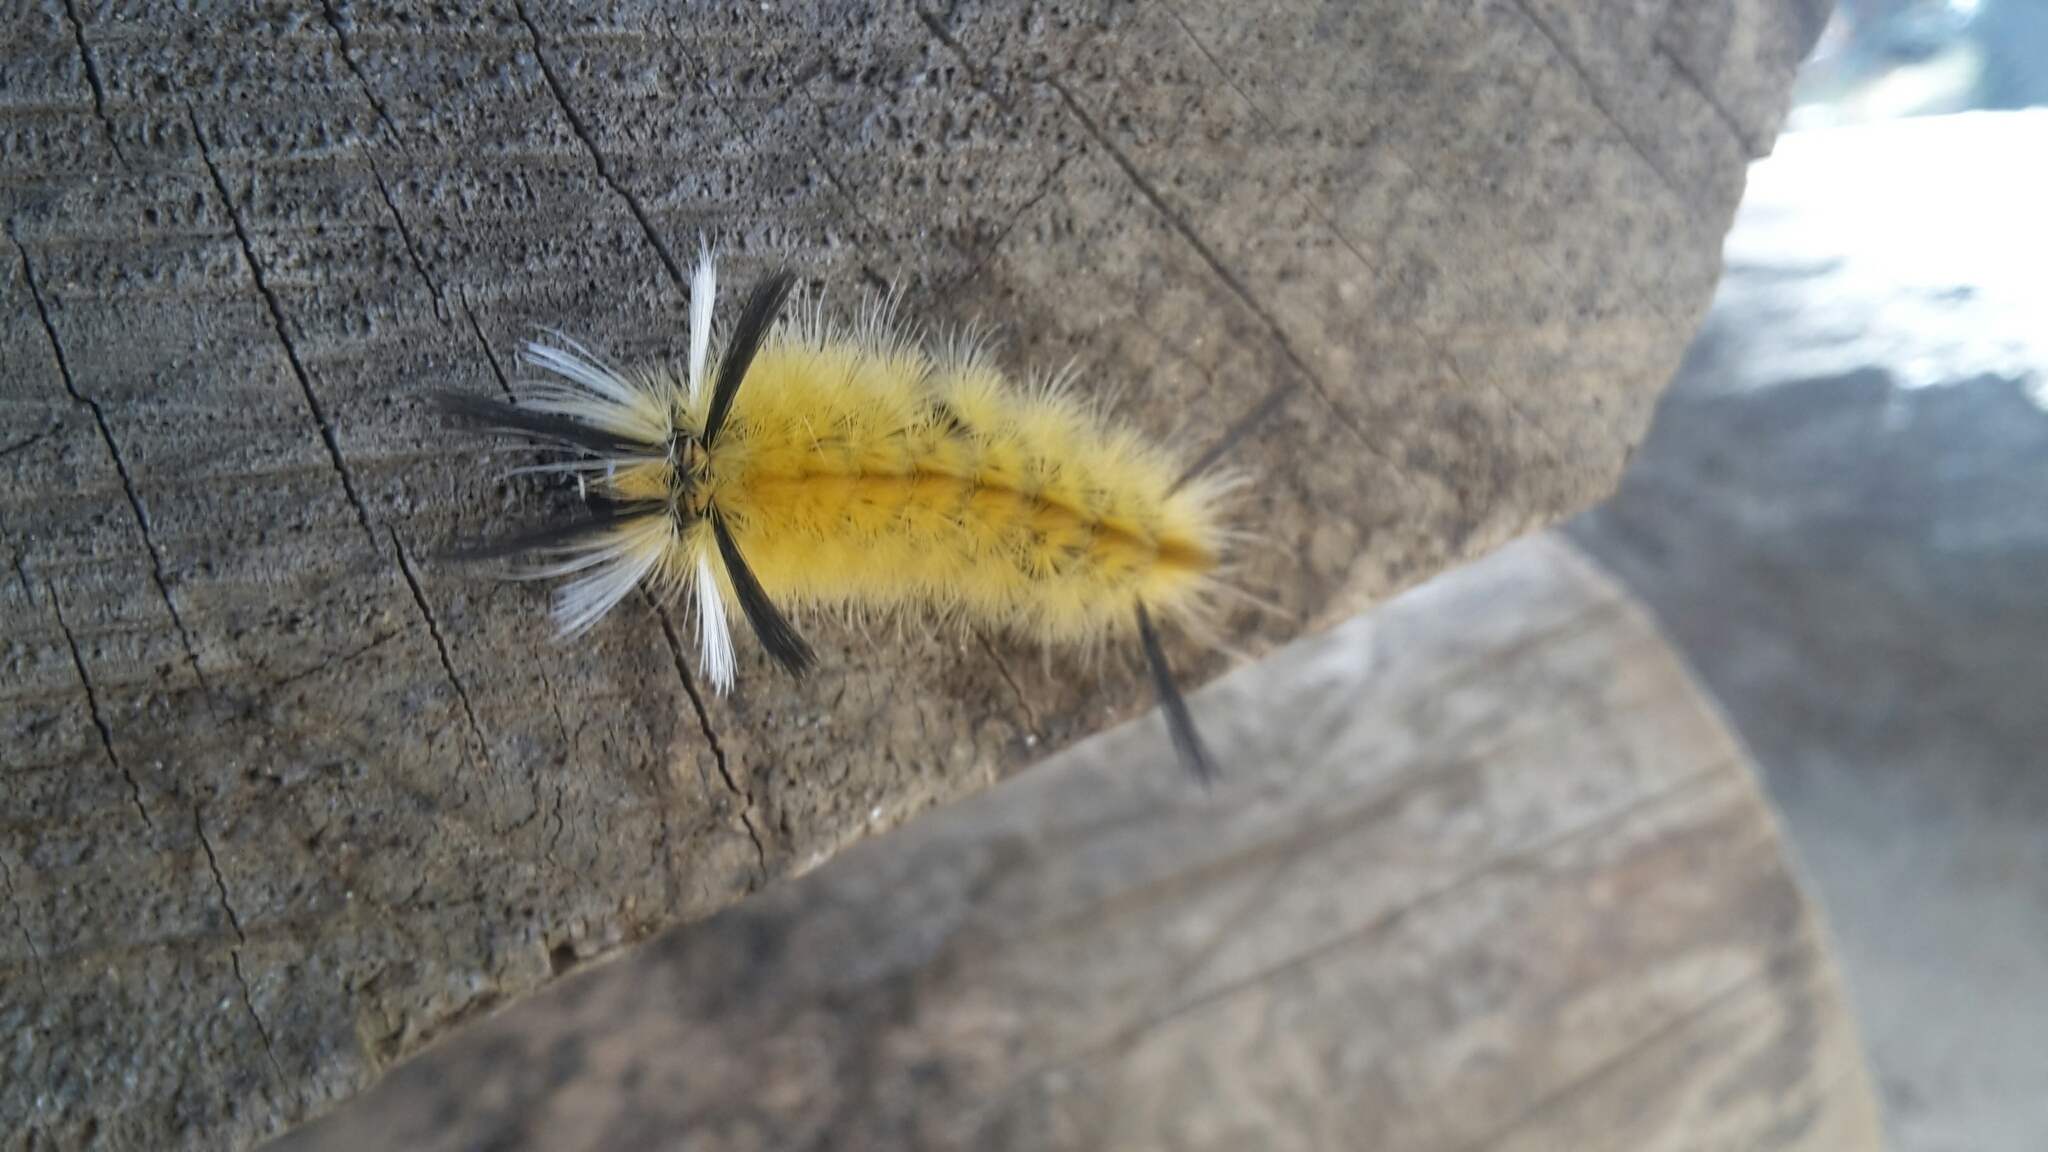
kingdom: Animalia
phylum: Arthropoda
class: Insecta
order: Lepidoptera
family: Erebidae
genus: Halysidota
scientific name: Halysidota tessellaris
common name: Banded tussock moth
